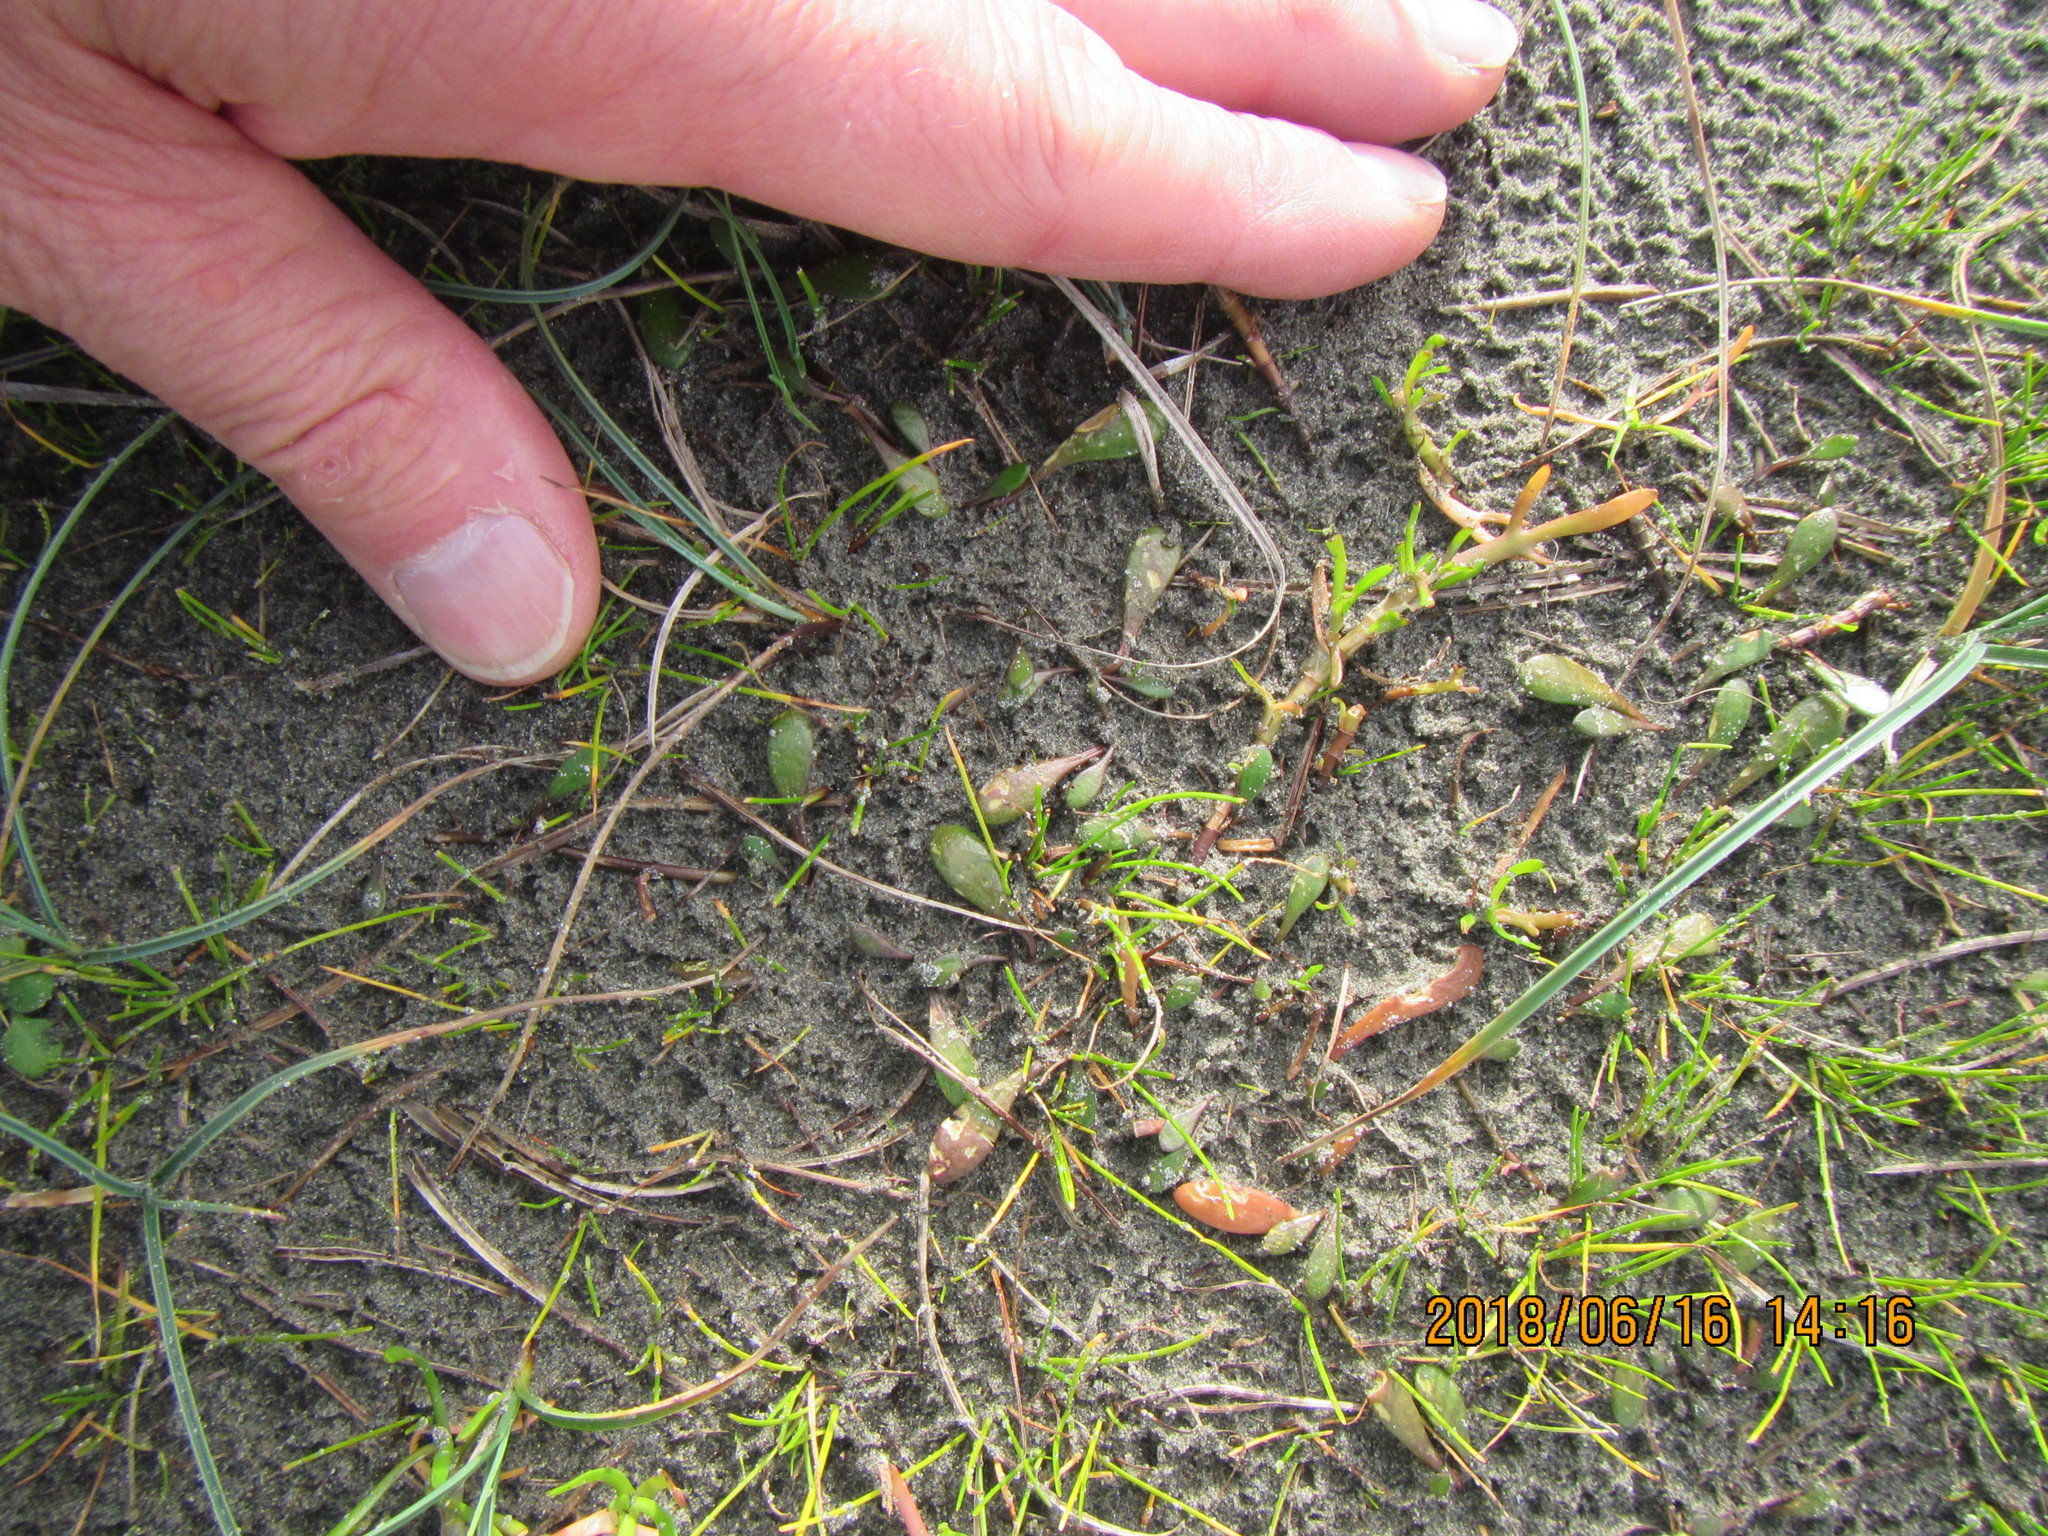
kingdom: Plantae
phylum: Tracheophyta
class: Magnoliopsida
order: Asterales
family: Goodeniaceae
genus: Goodenia
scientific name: Goodenia radicans
